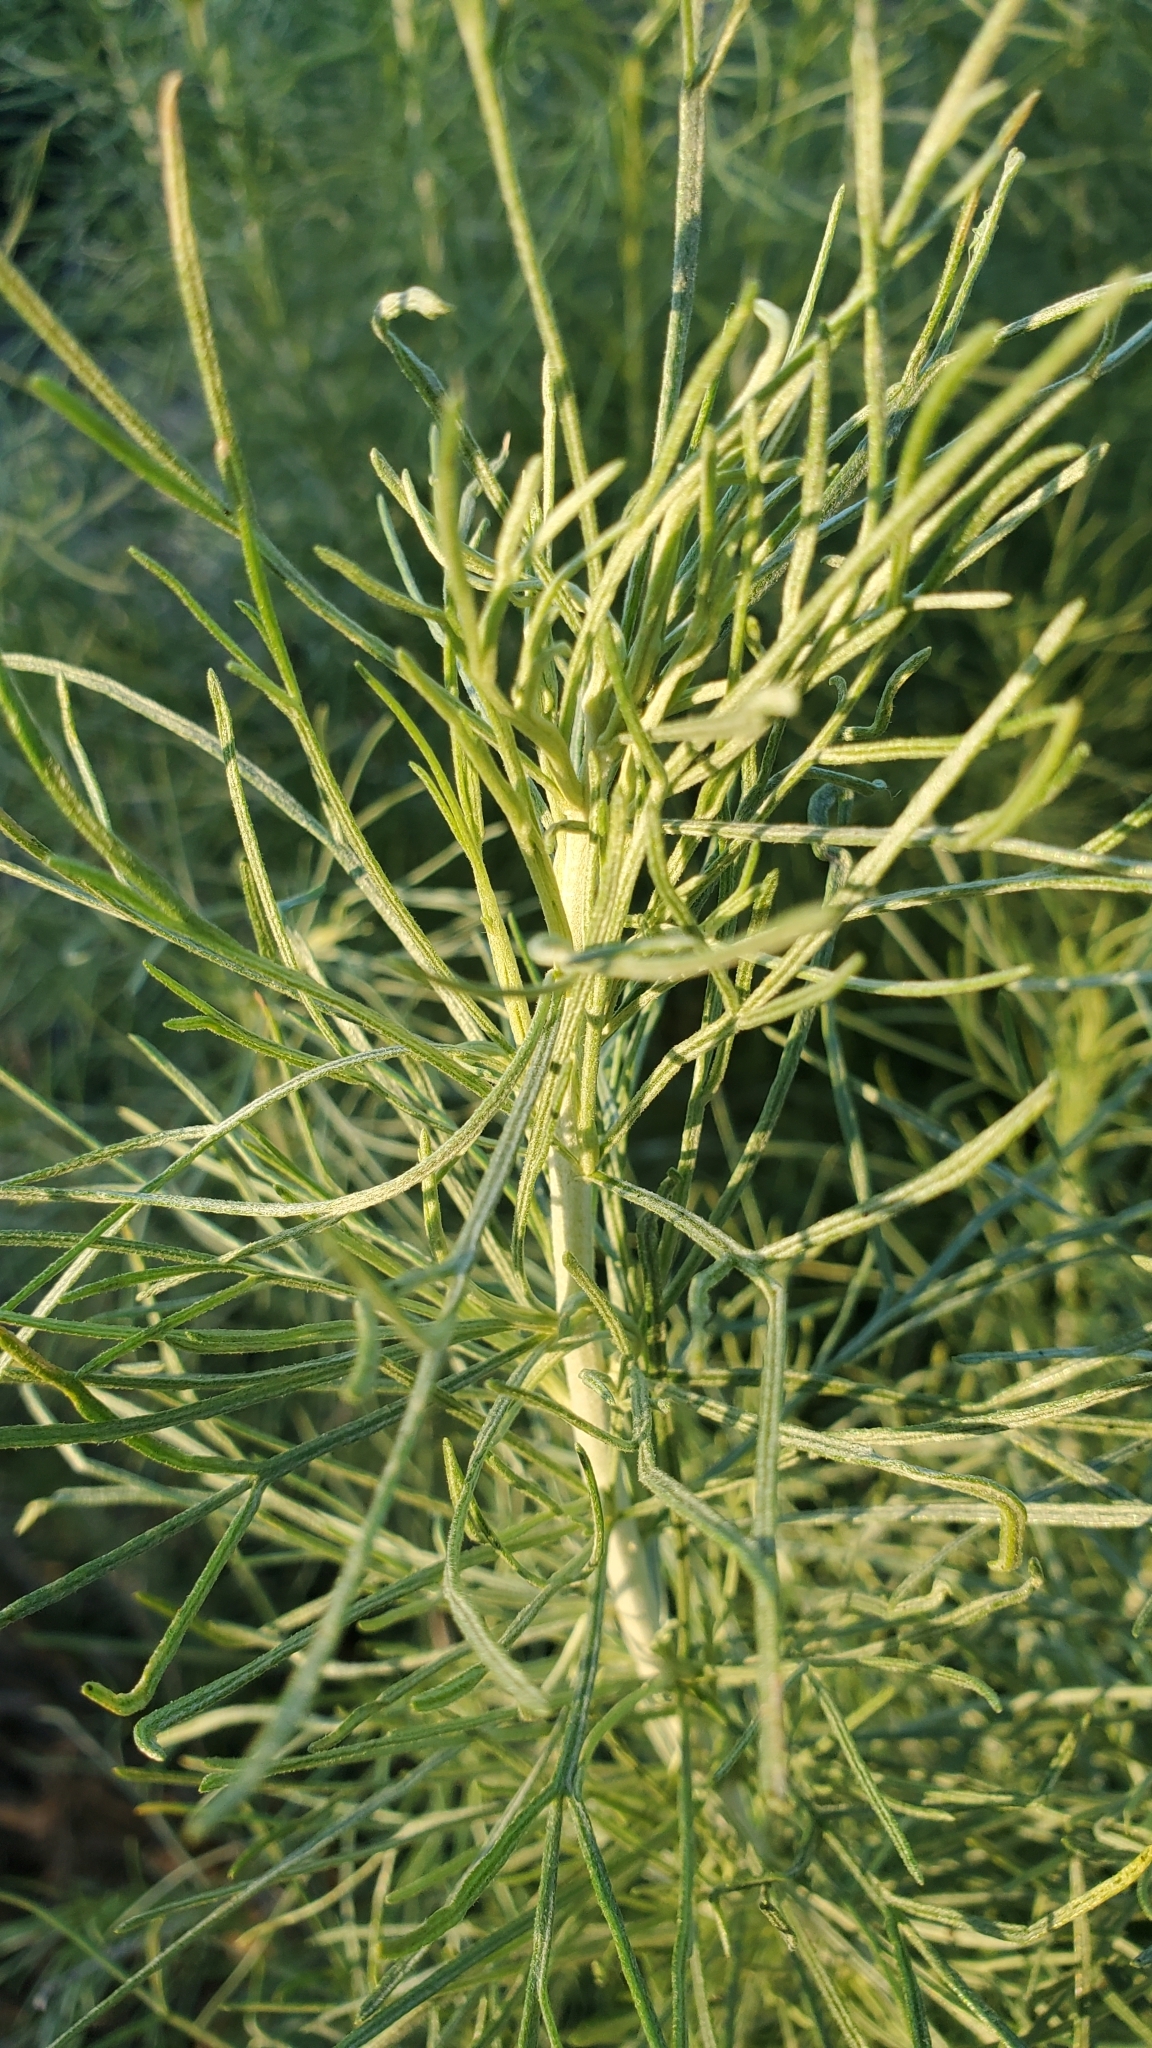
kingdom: Plantae
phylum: Tracheophyta
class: Magnoliopsida
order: Asterales
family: Asteraceae
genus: Artemisia
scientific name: Artemisia californica
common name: California sagebrush
